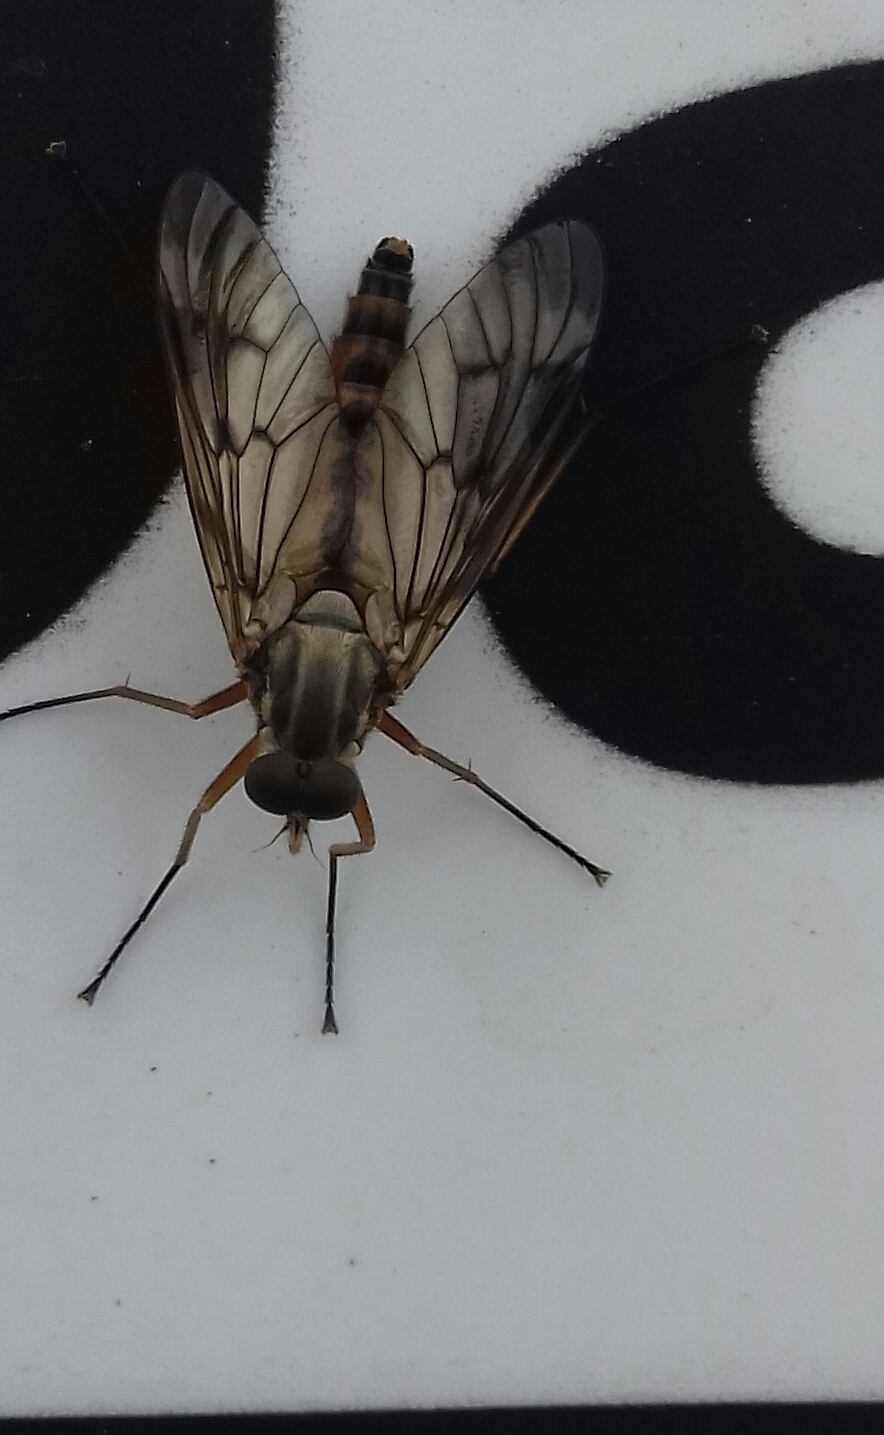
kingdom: Animalia
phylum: Arthropoda
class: Insecta
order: Diptera
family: Rhagionidae
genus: Rhagio
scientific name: Rhagio scolopacea
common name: Downlooker snipefly
